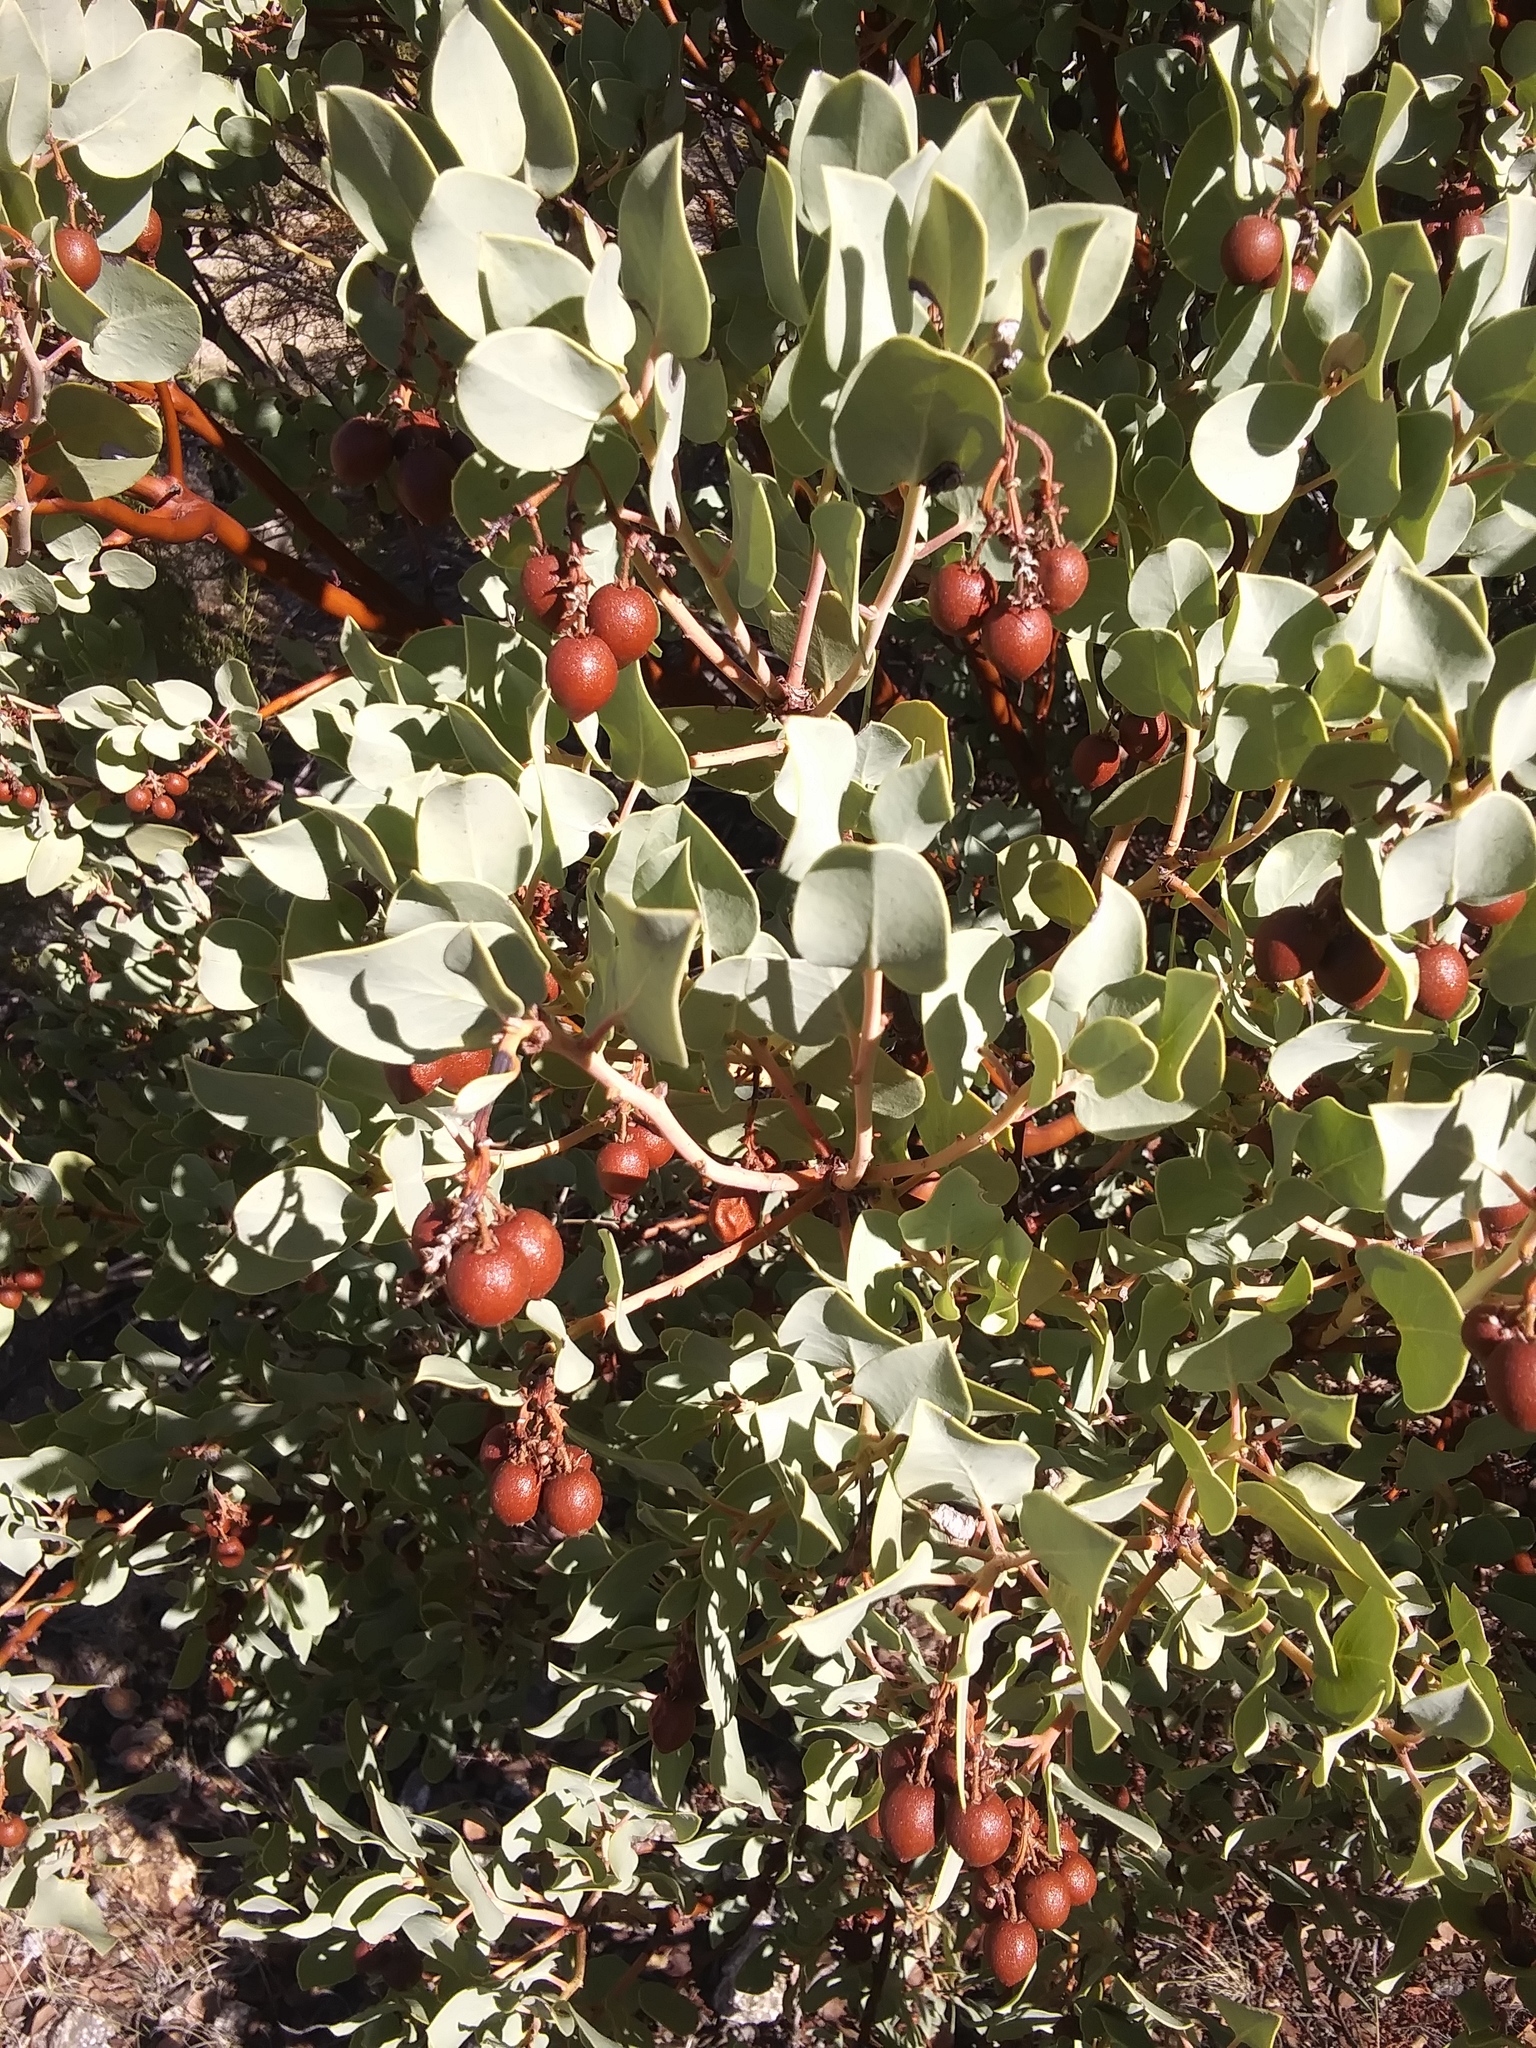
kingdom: Plantae
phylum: Tracheophyta
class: Magnoliopsida
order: Ericales
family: Ericaceae
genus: Arctostaphylos
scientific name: Arctostaphylos glauca
